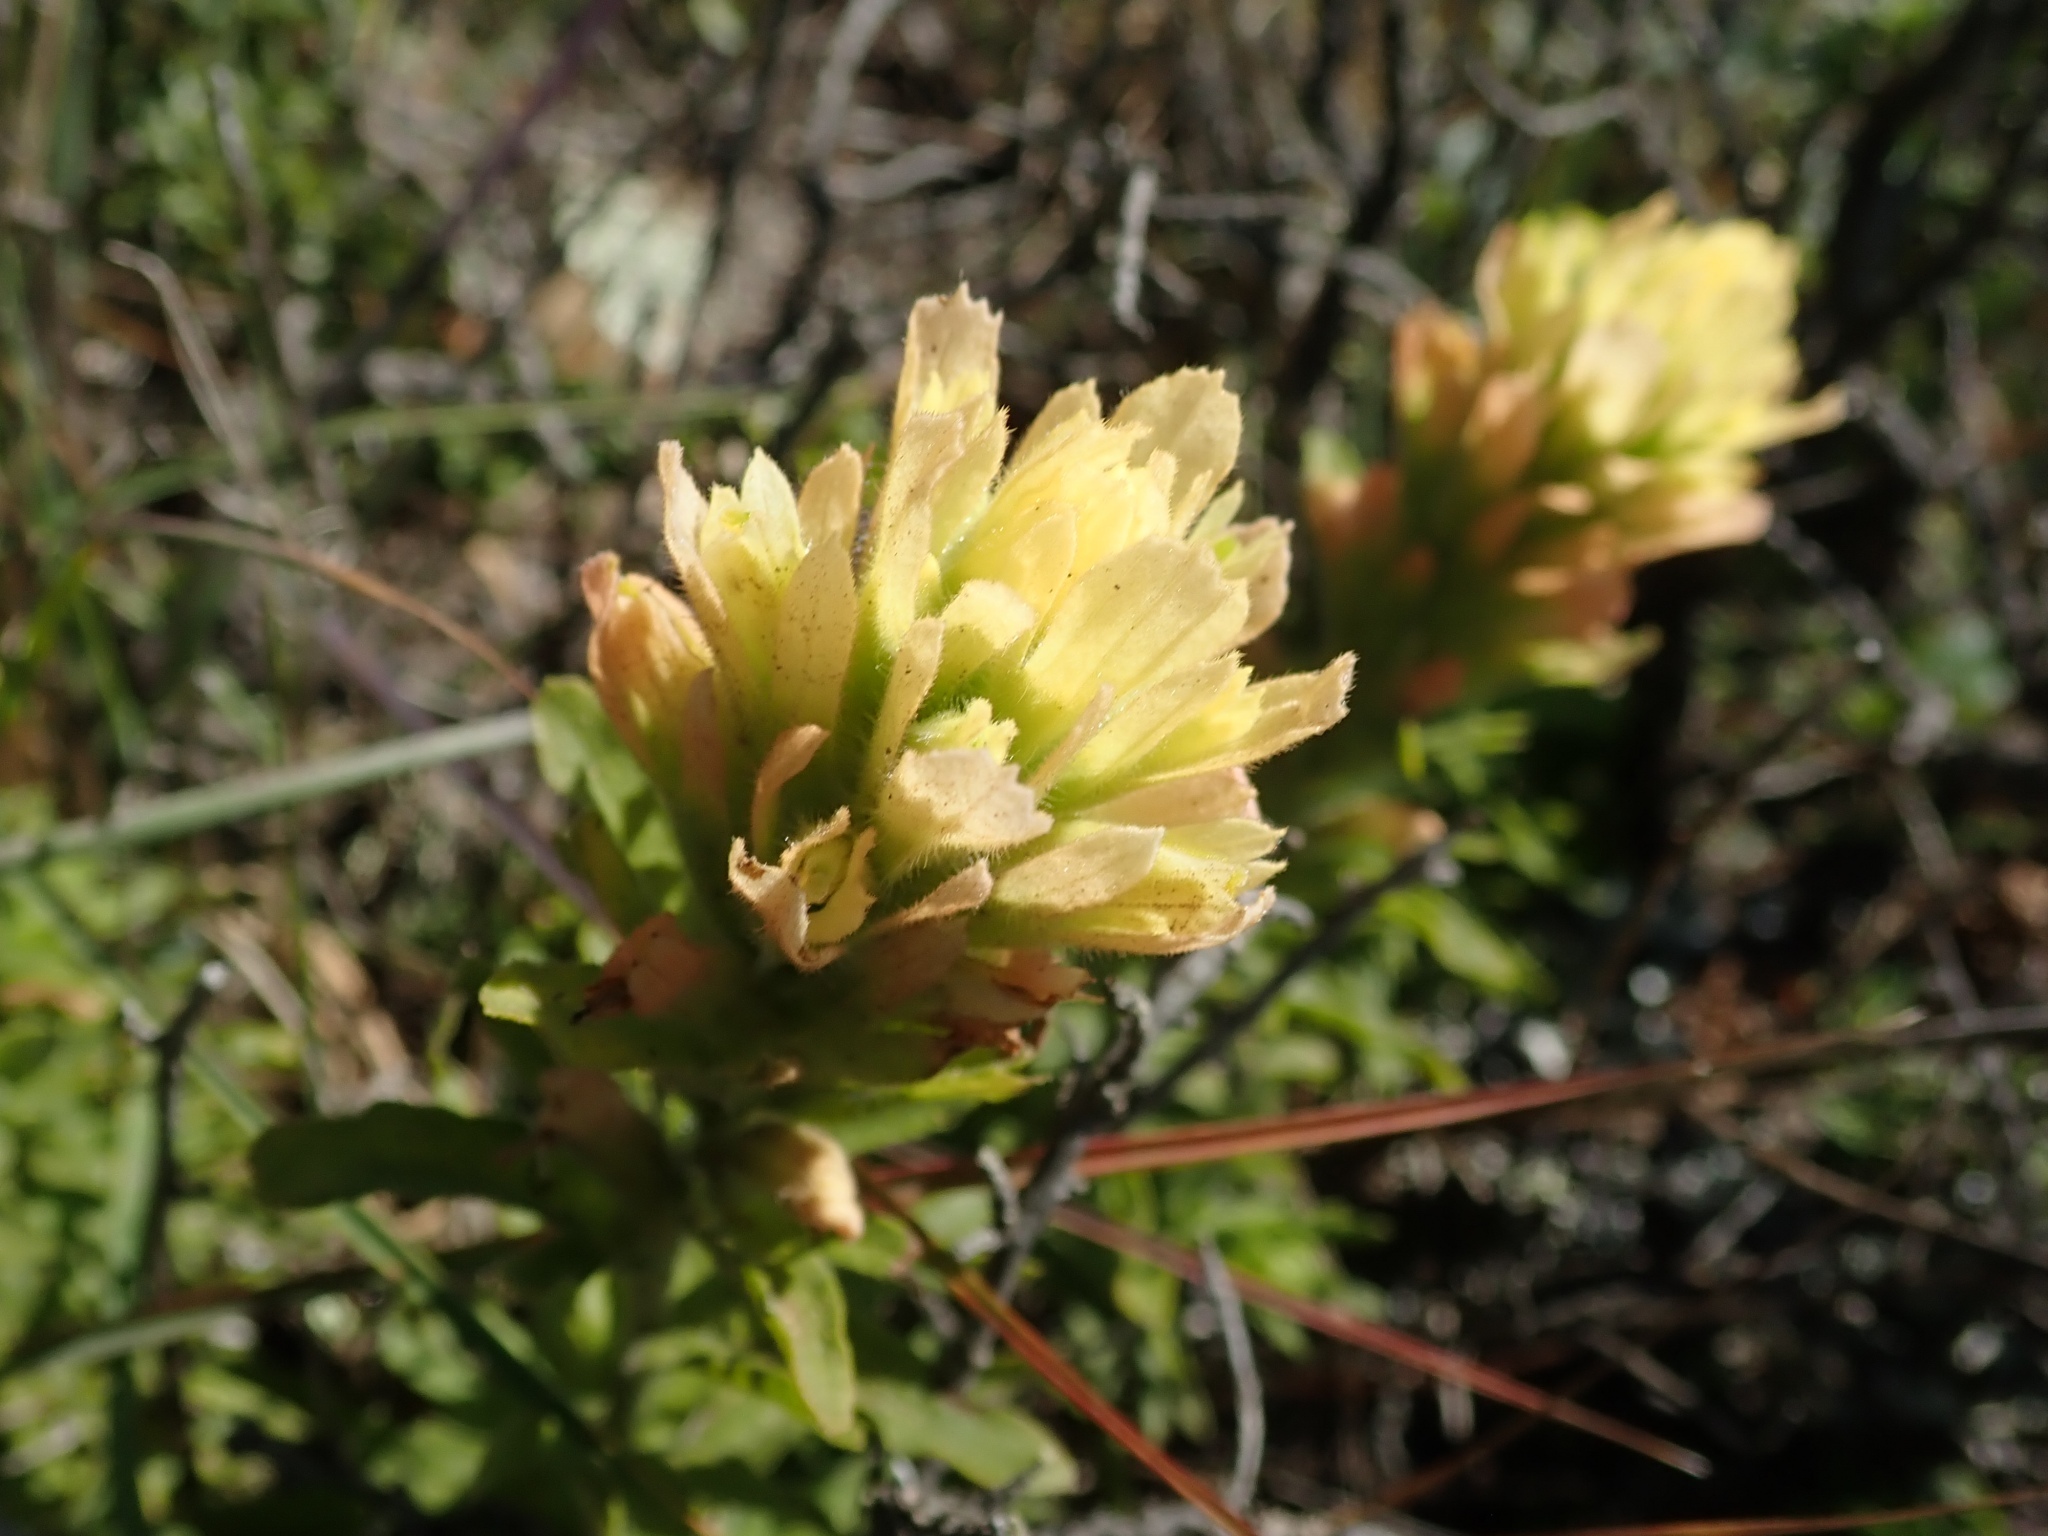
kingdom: Plantae
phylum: Tracheophyta
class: Magnoliopsida
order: Lamiales
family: Orobanchaceae
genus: Castilleja
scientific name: Castilleja wightii
